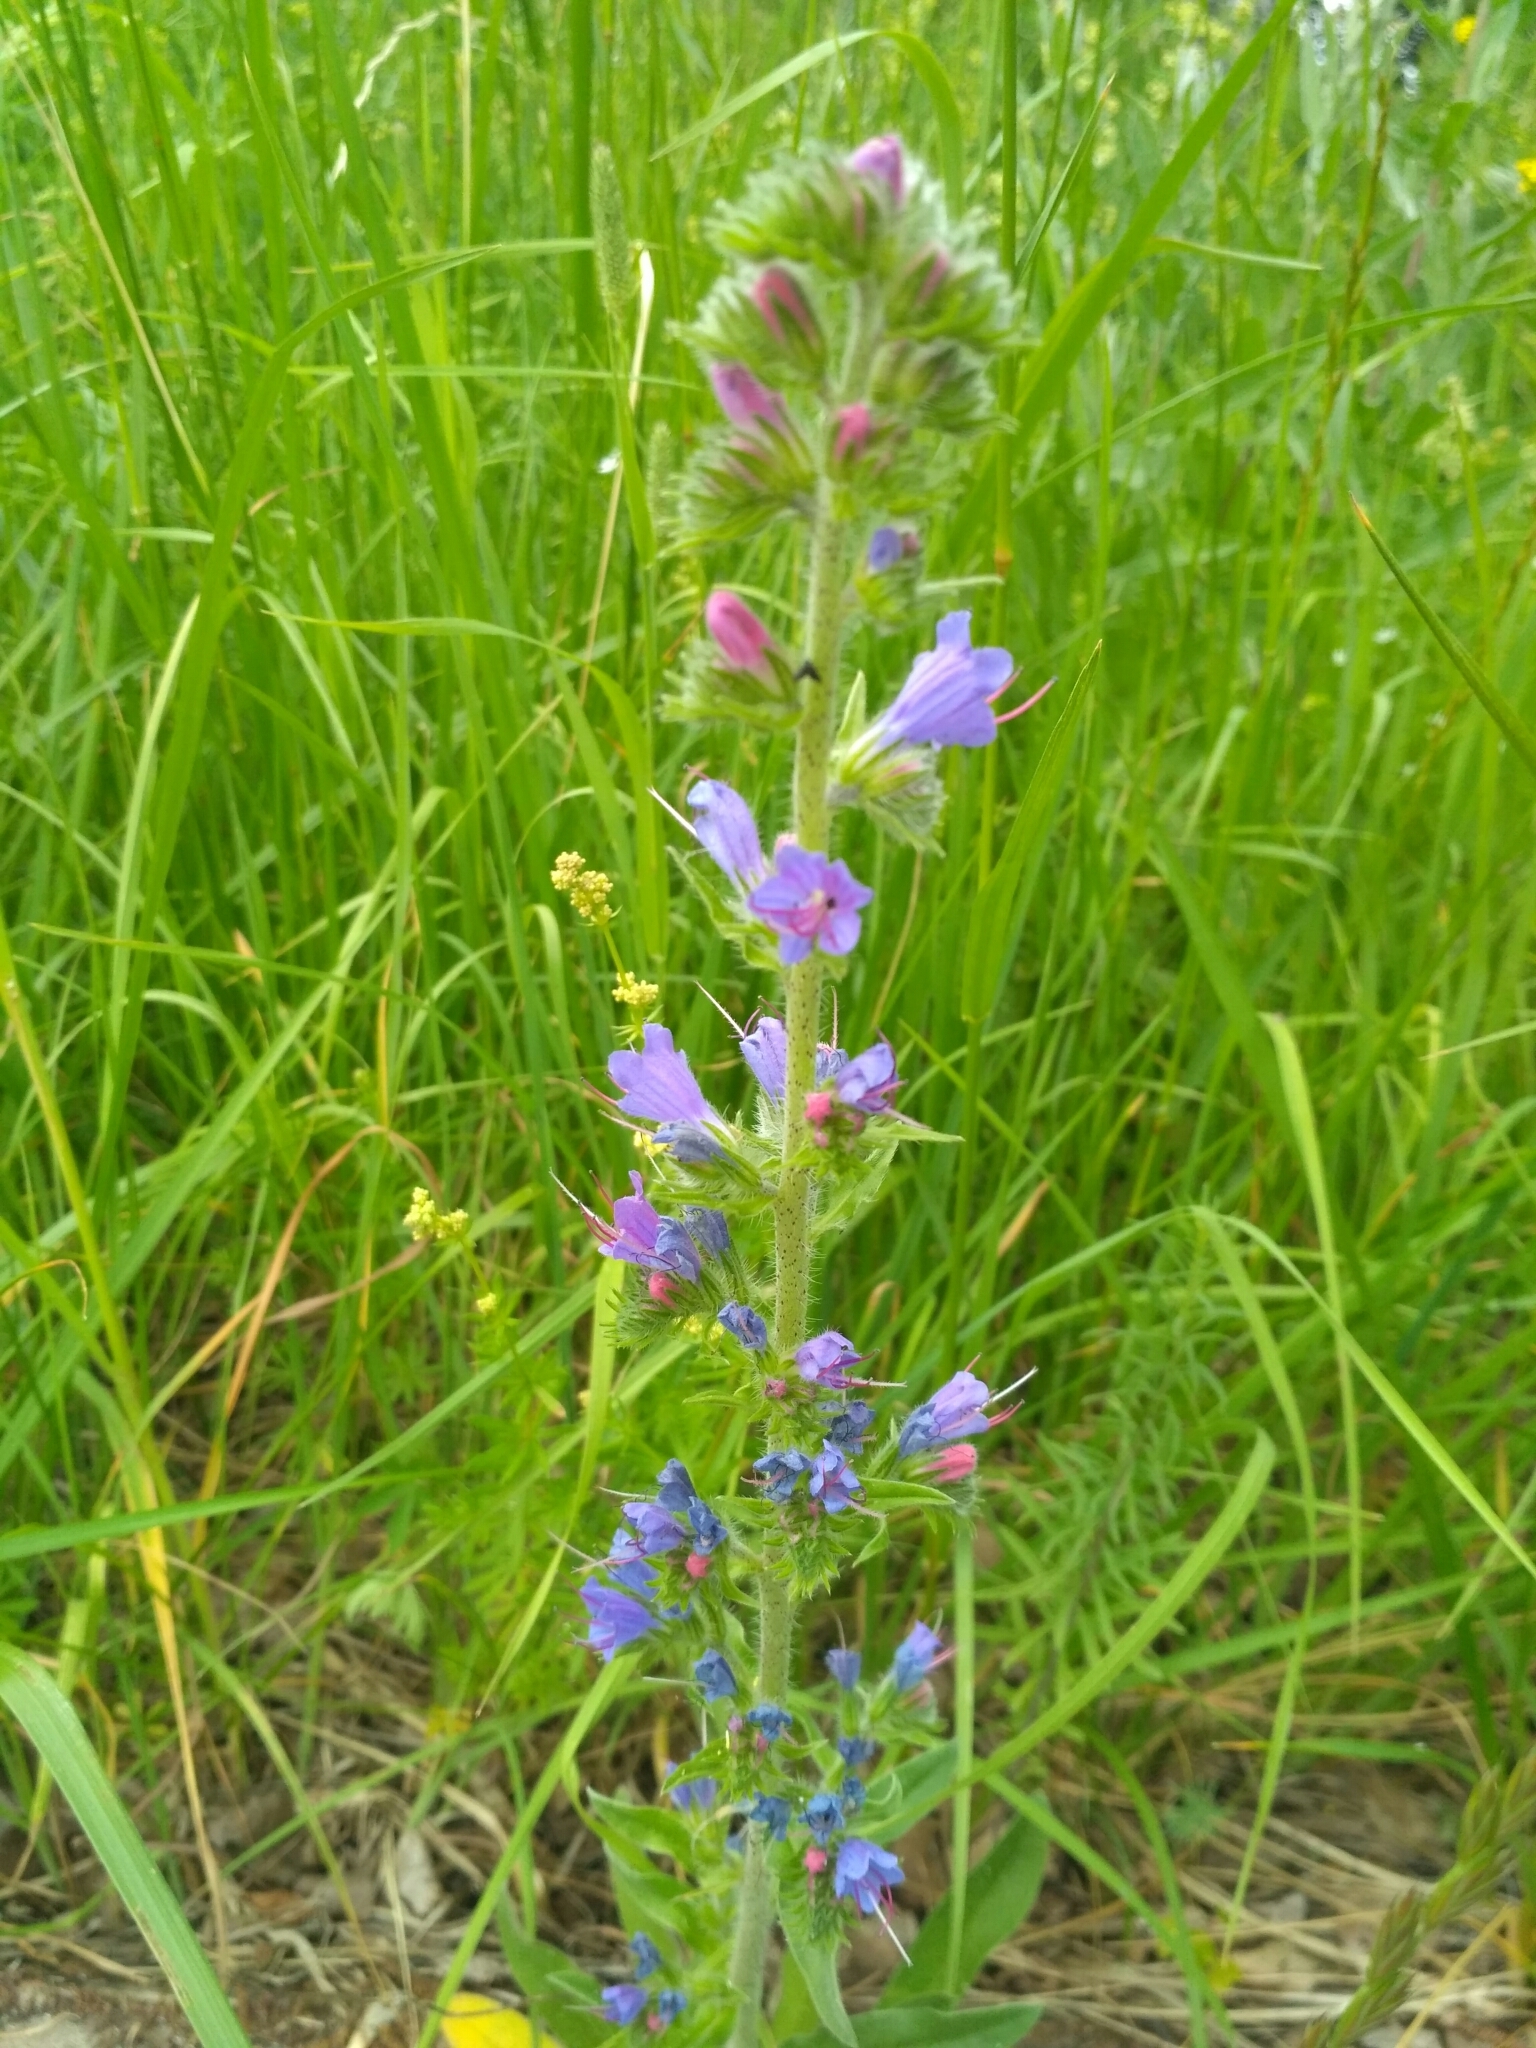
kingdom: Plantae
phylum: Tracheophyta
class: Magnoliopsida
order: Boraginales
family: Boraginaceae
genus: Echium
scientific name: Echium vulgare
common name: Common viper's bugloss
